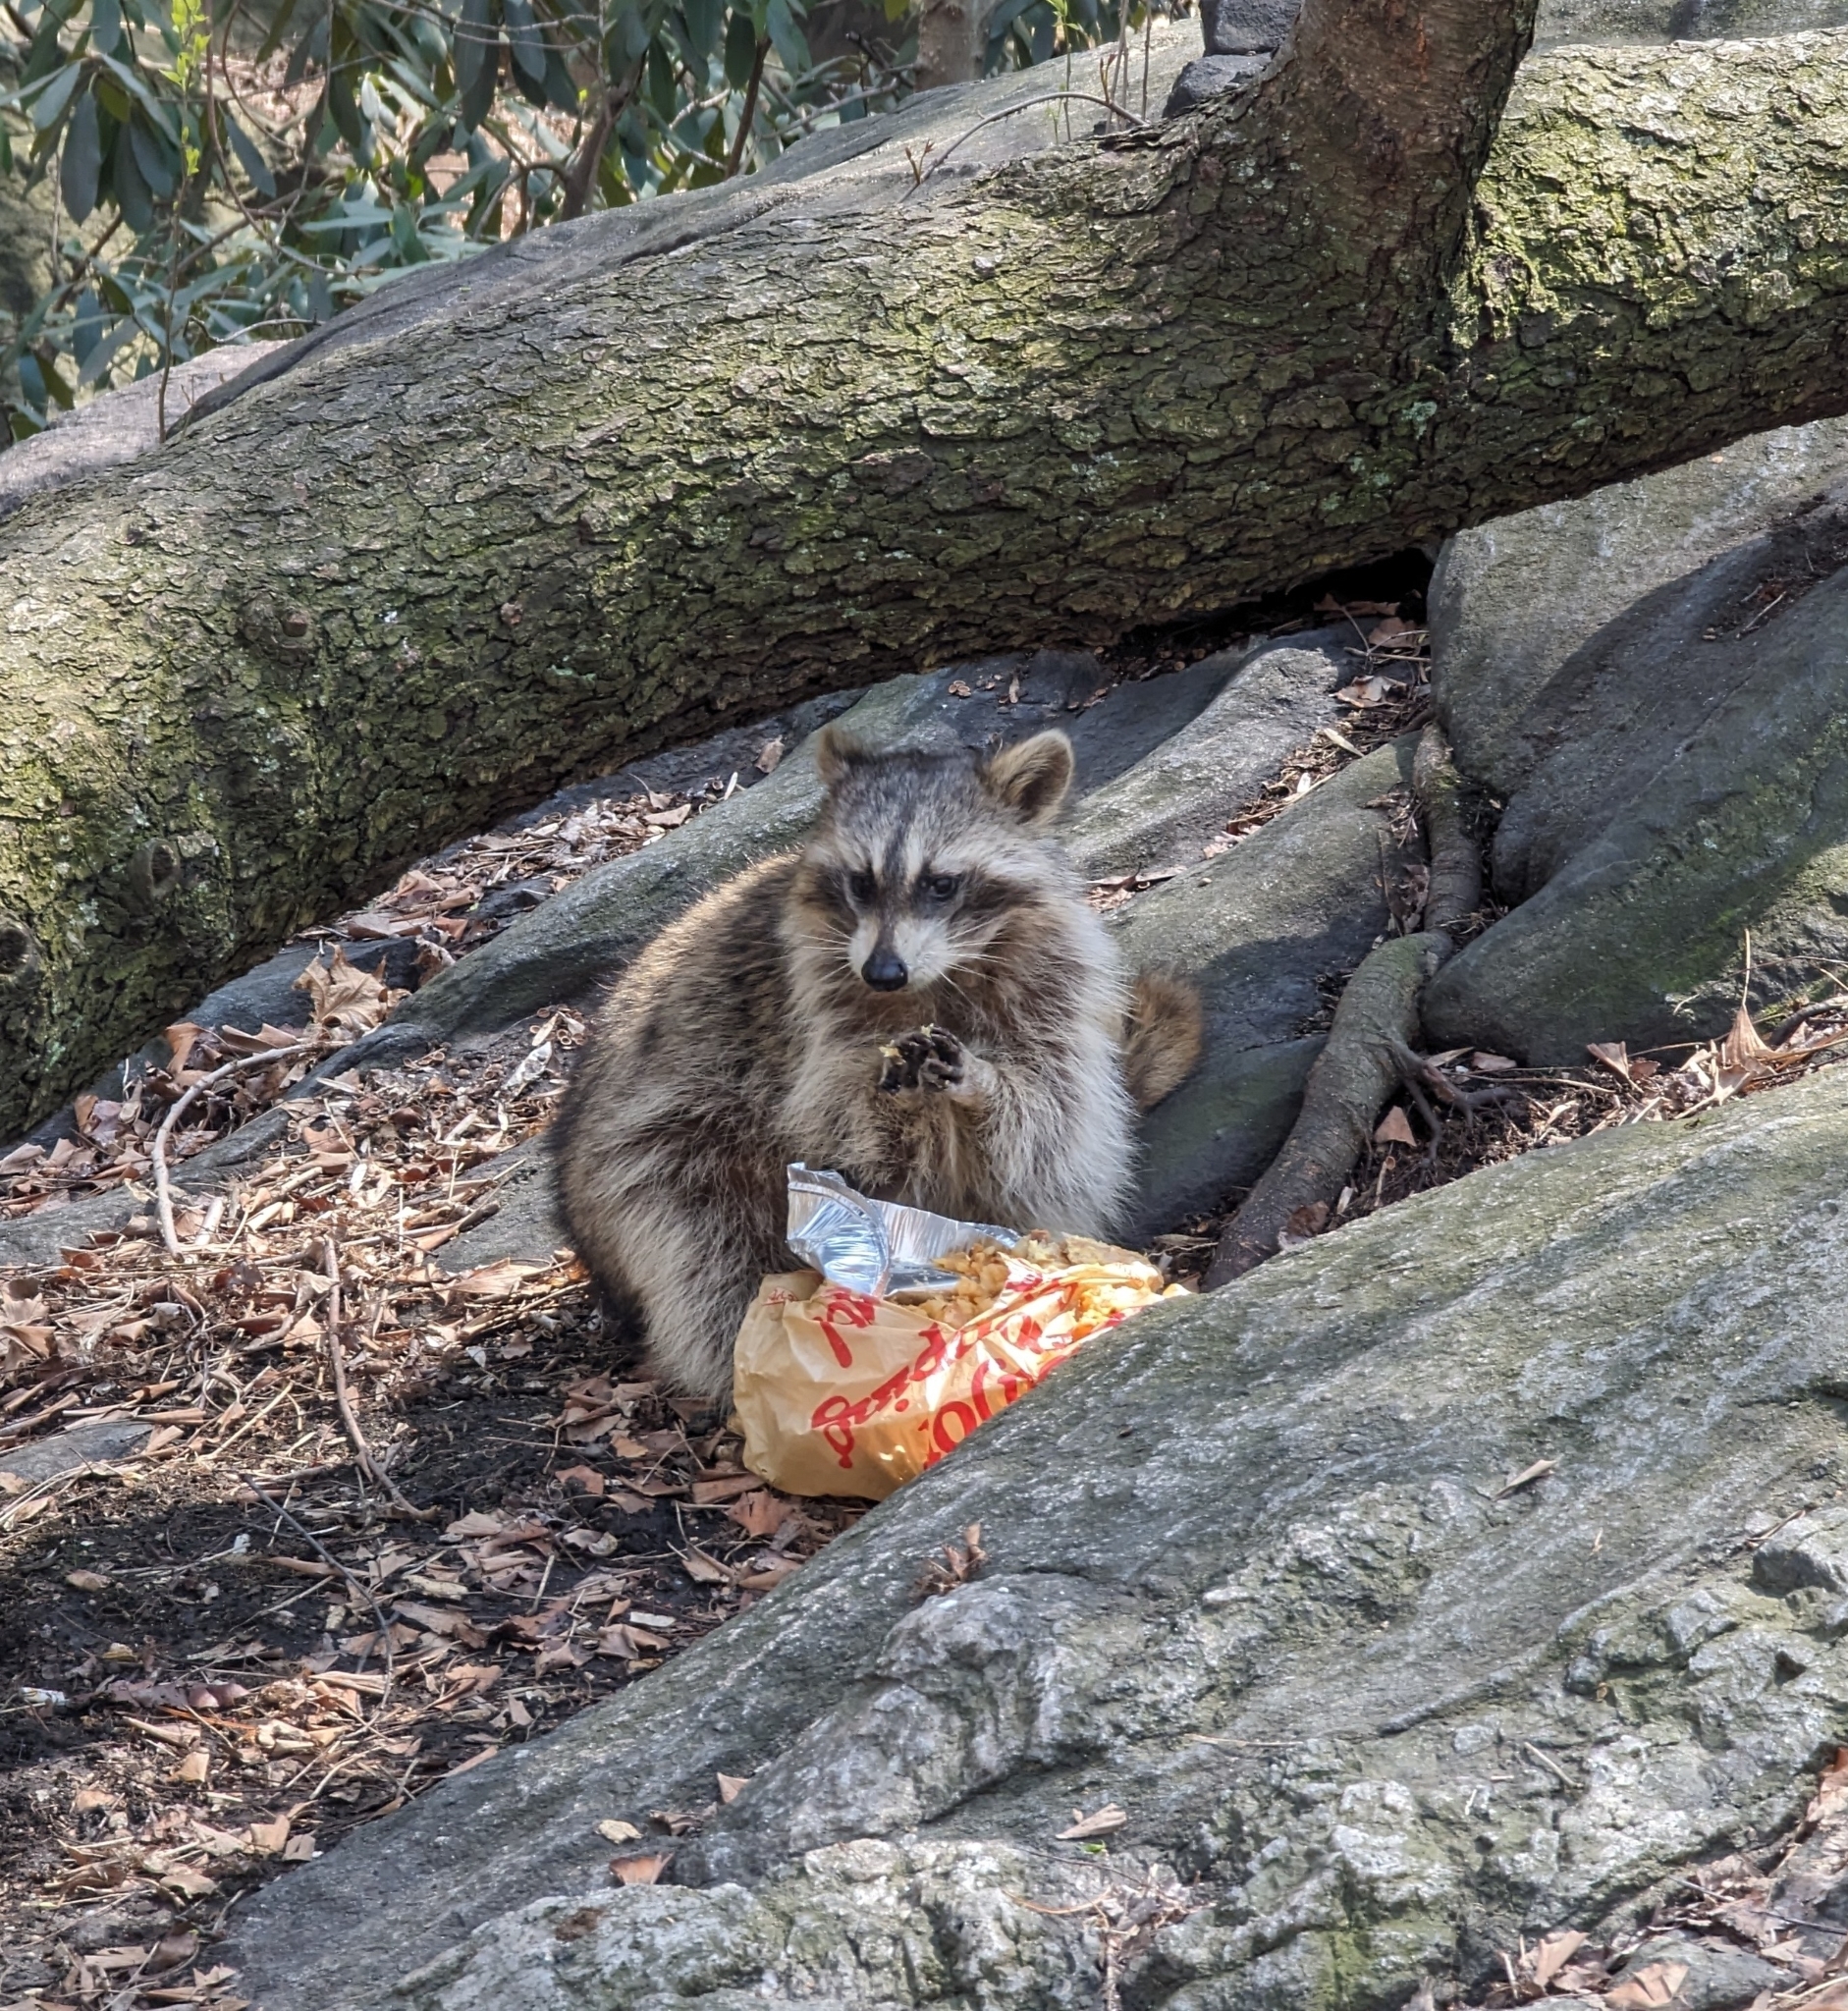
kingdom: Animalia
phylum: Chordata
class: Mammalia
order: Carnivora
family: Procyonidae
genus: Procyon
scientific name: Procyon lotor
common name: Raccoon
